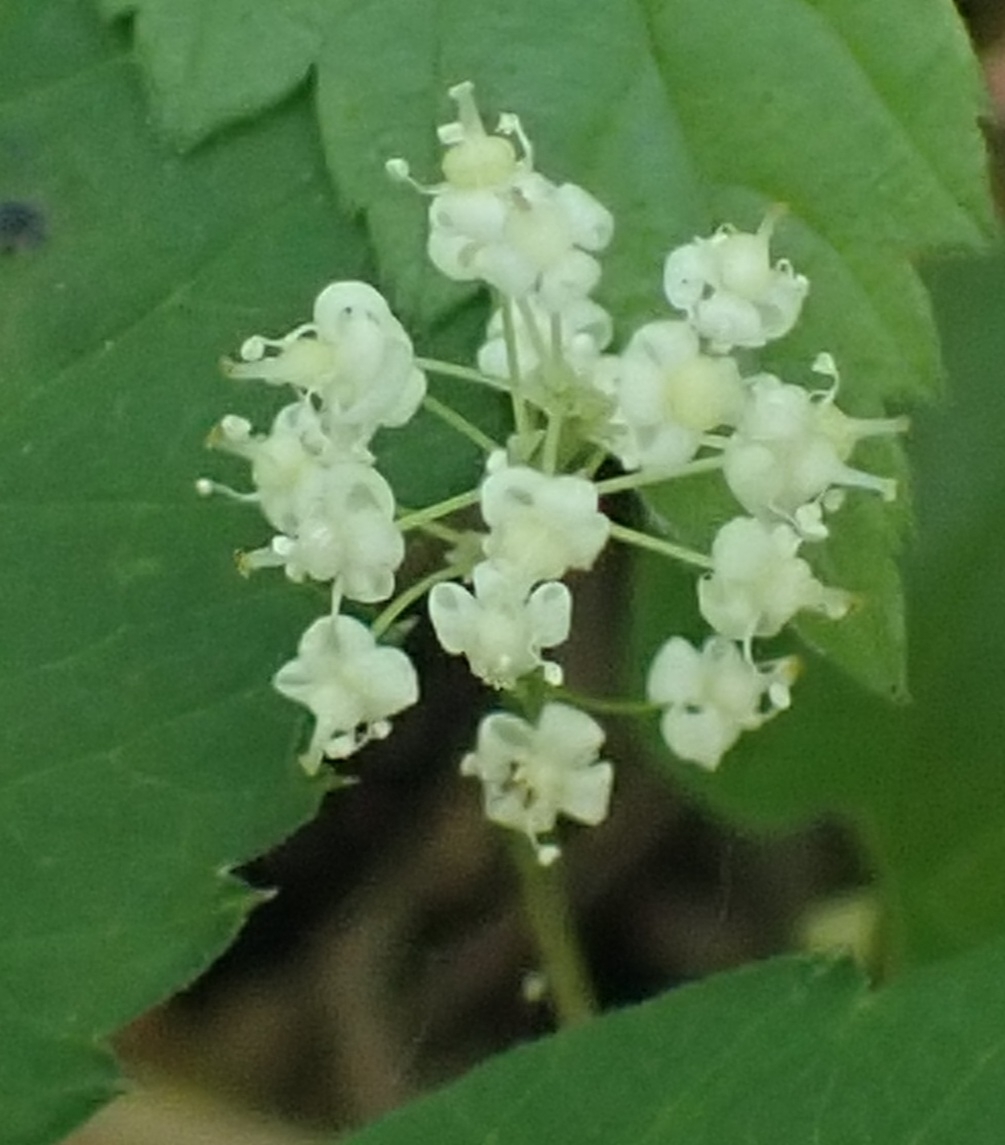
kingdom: Plantae
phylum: Tracheophyta
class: Liliopsida
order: Asparagales
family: Asparagaceae
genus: Maianthemum
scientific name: Maianthemum bifolium
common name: May lily
